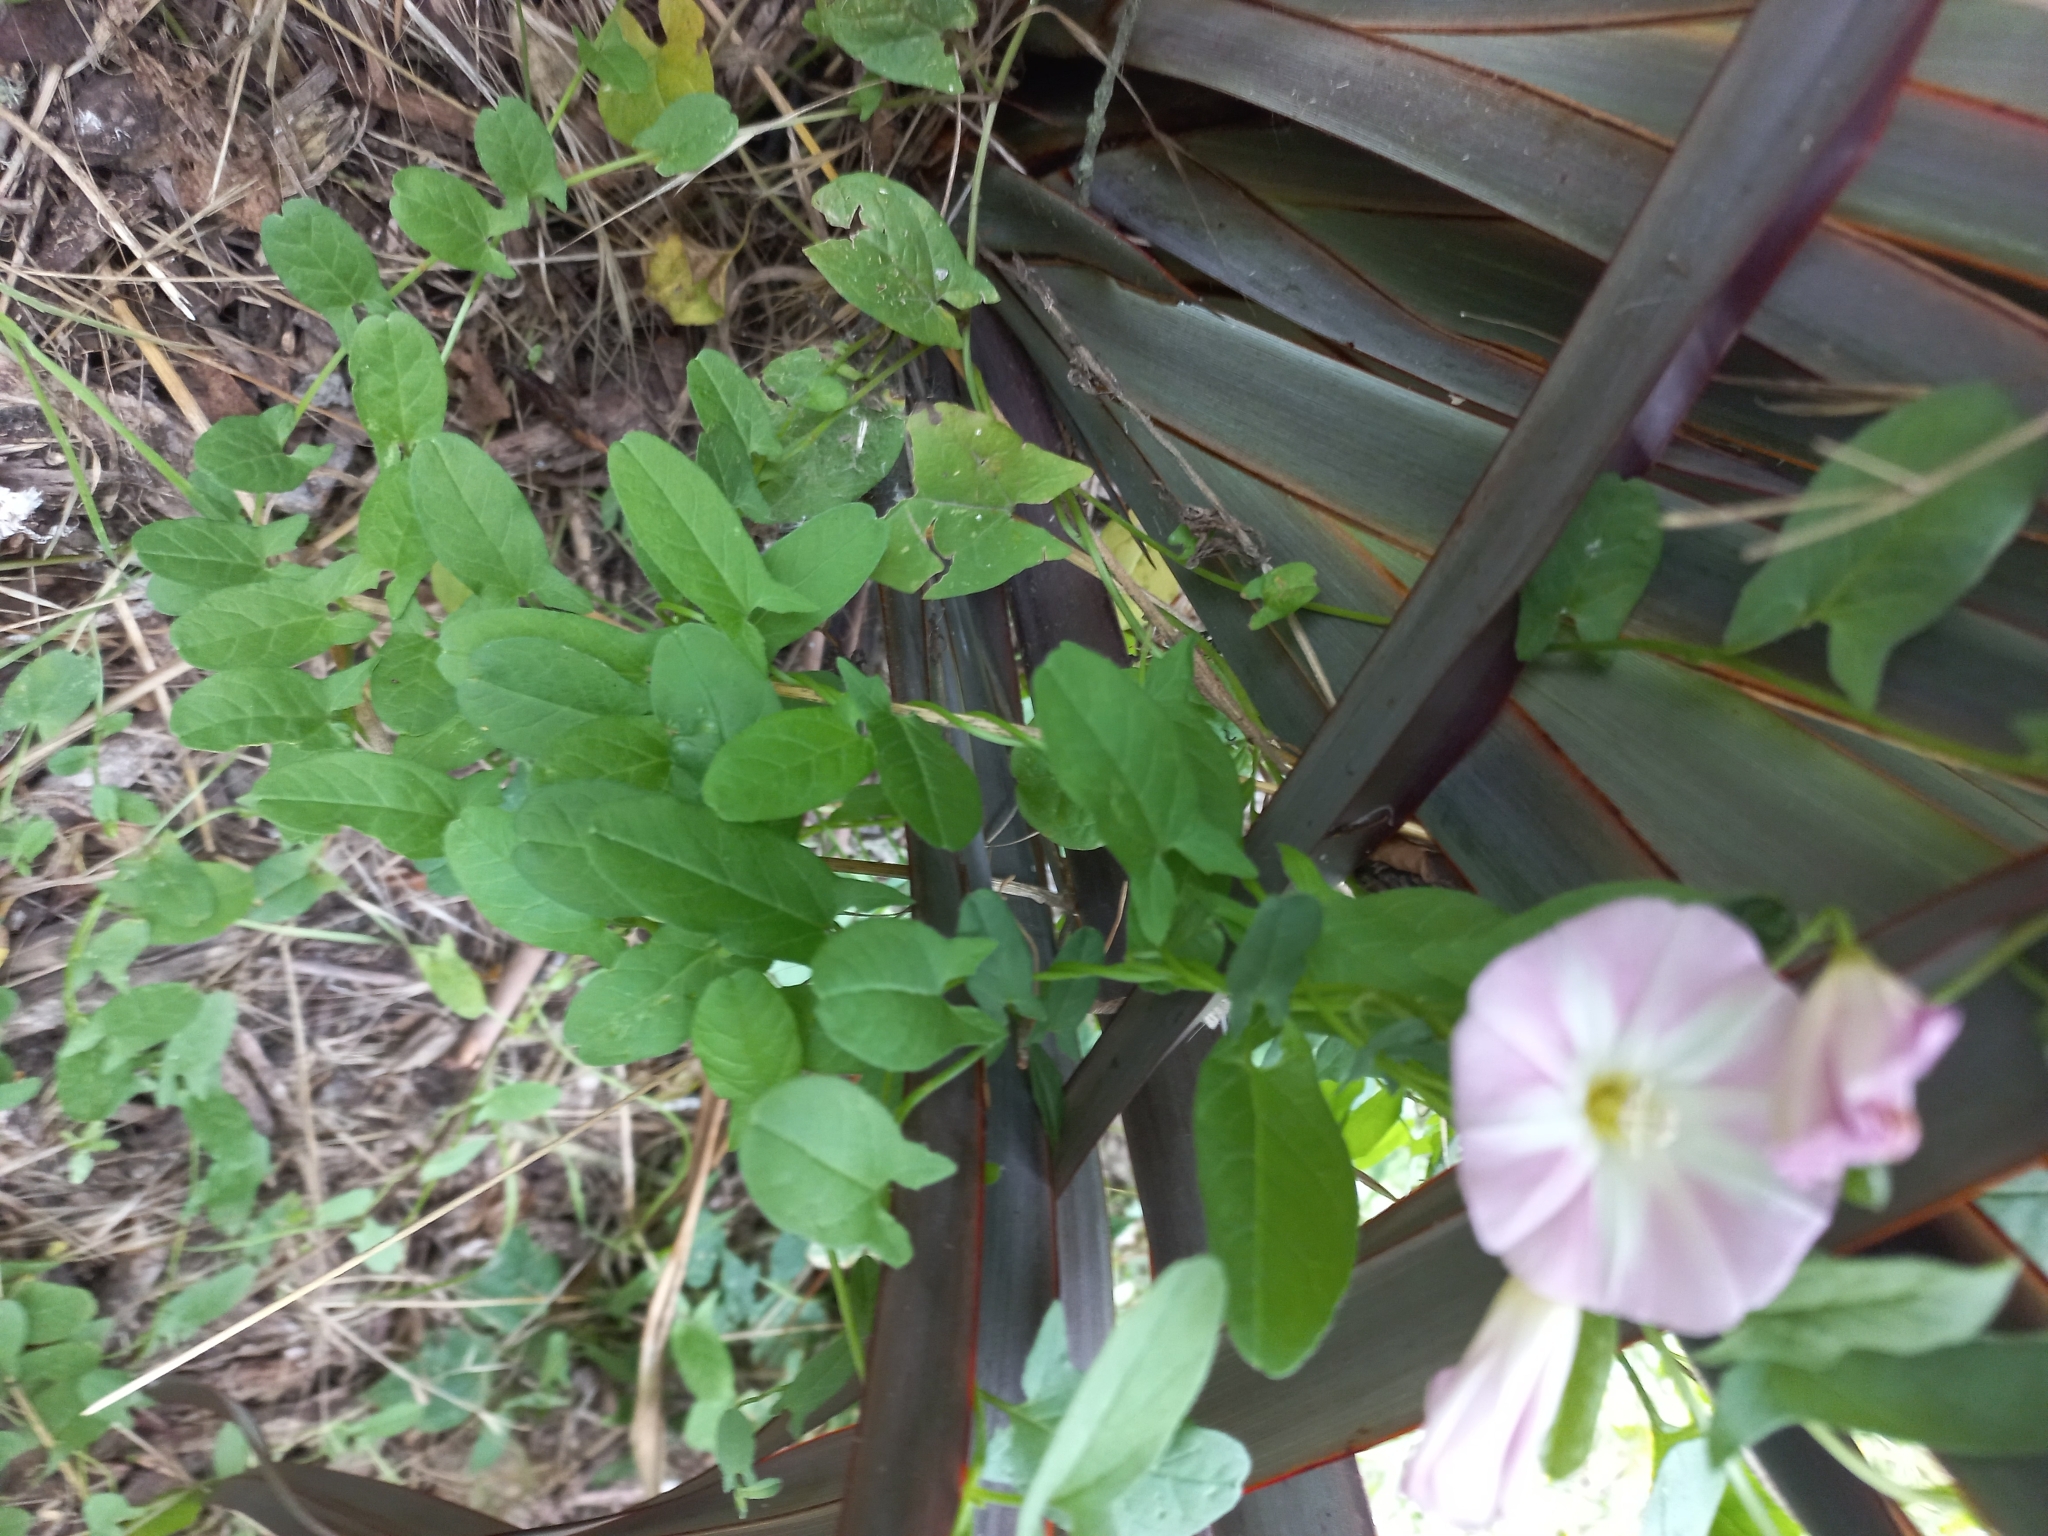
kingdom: Plantae
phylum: Tracheophyta
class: Magnoliopsida
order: Solanales
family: Convolvulaceae
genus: Convolvulus
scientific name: Convolvulus arvensis
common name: Field bindweed
